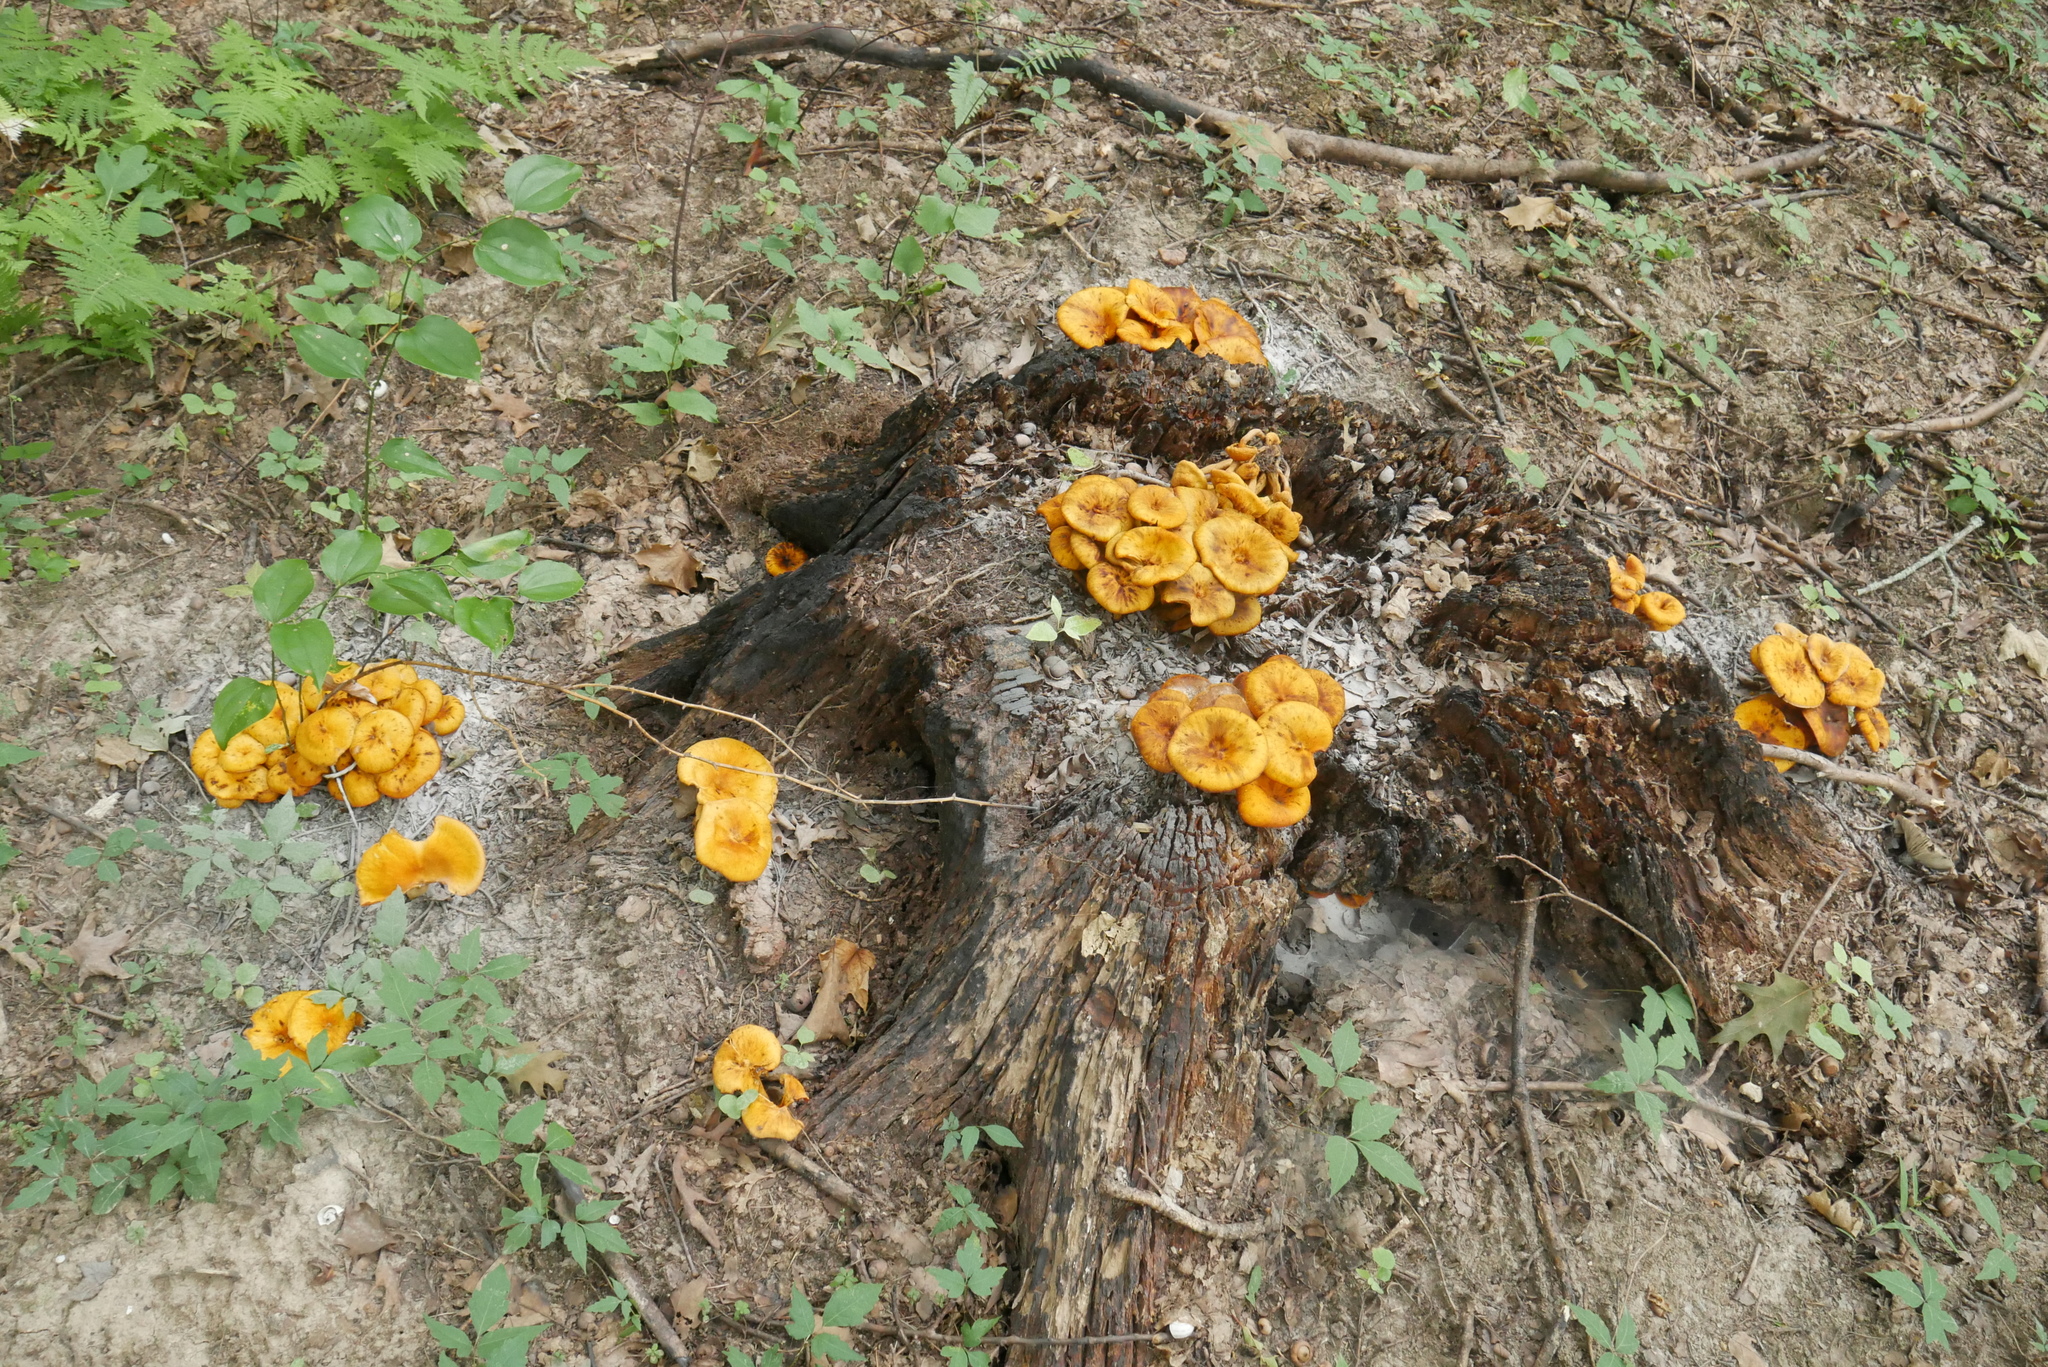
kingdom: Fungi
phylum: Basidiomycota
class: Agaricomycetes
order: Agaricales
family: Omphalotaceae
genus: Omphalotus
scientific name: Omphalotus illudens
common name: Jack o lantern
